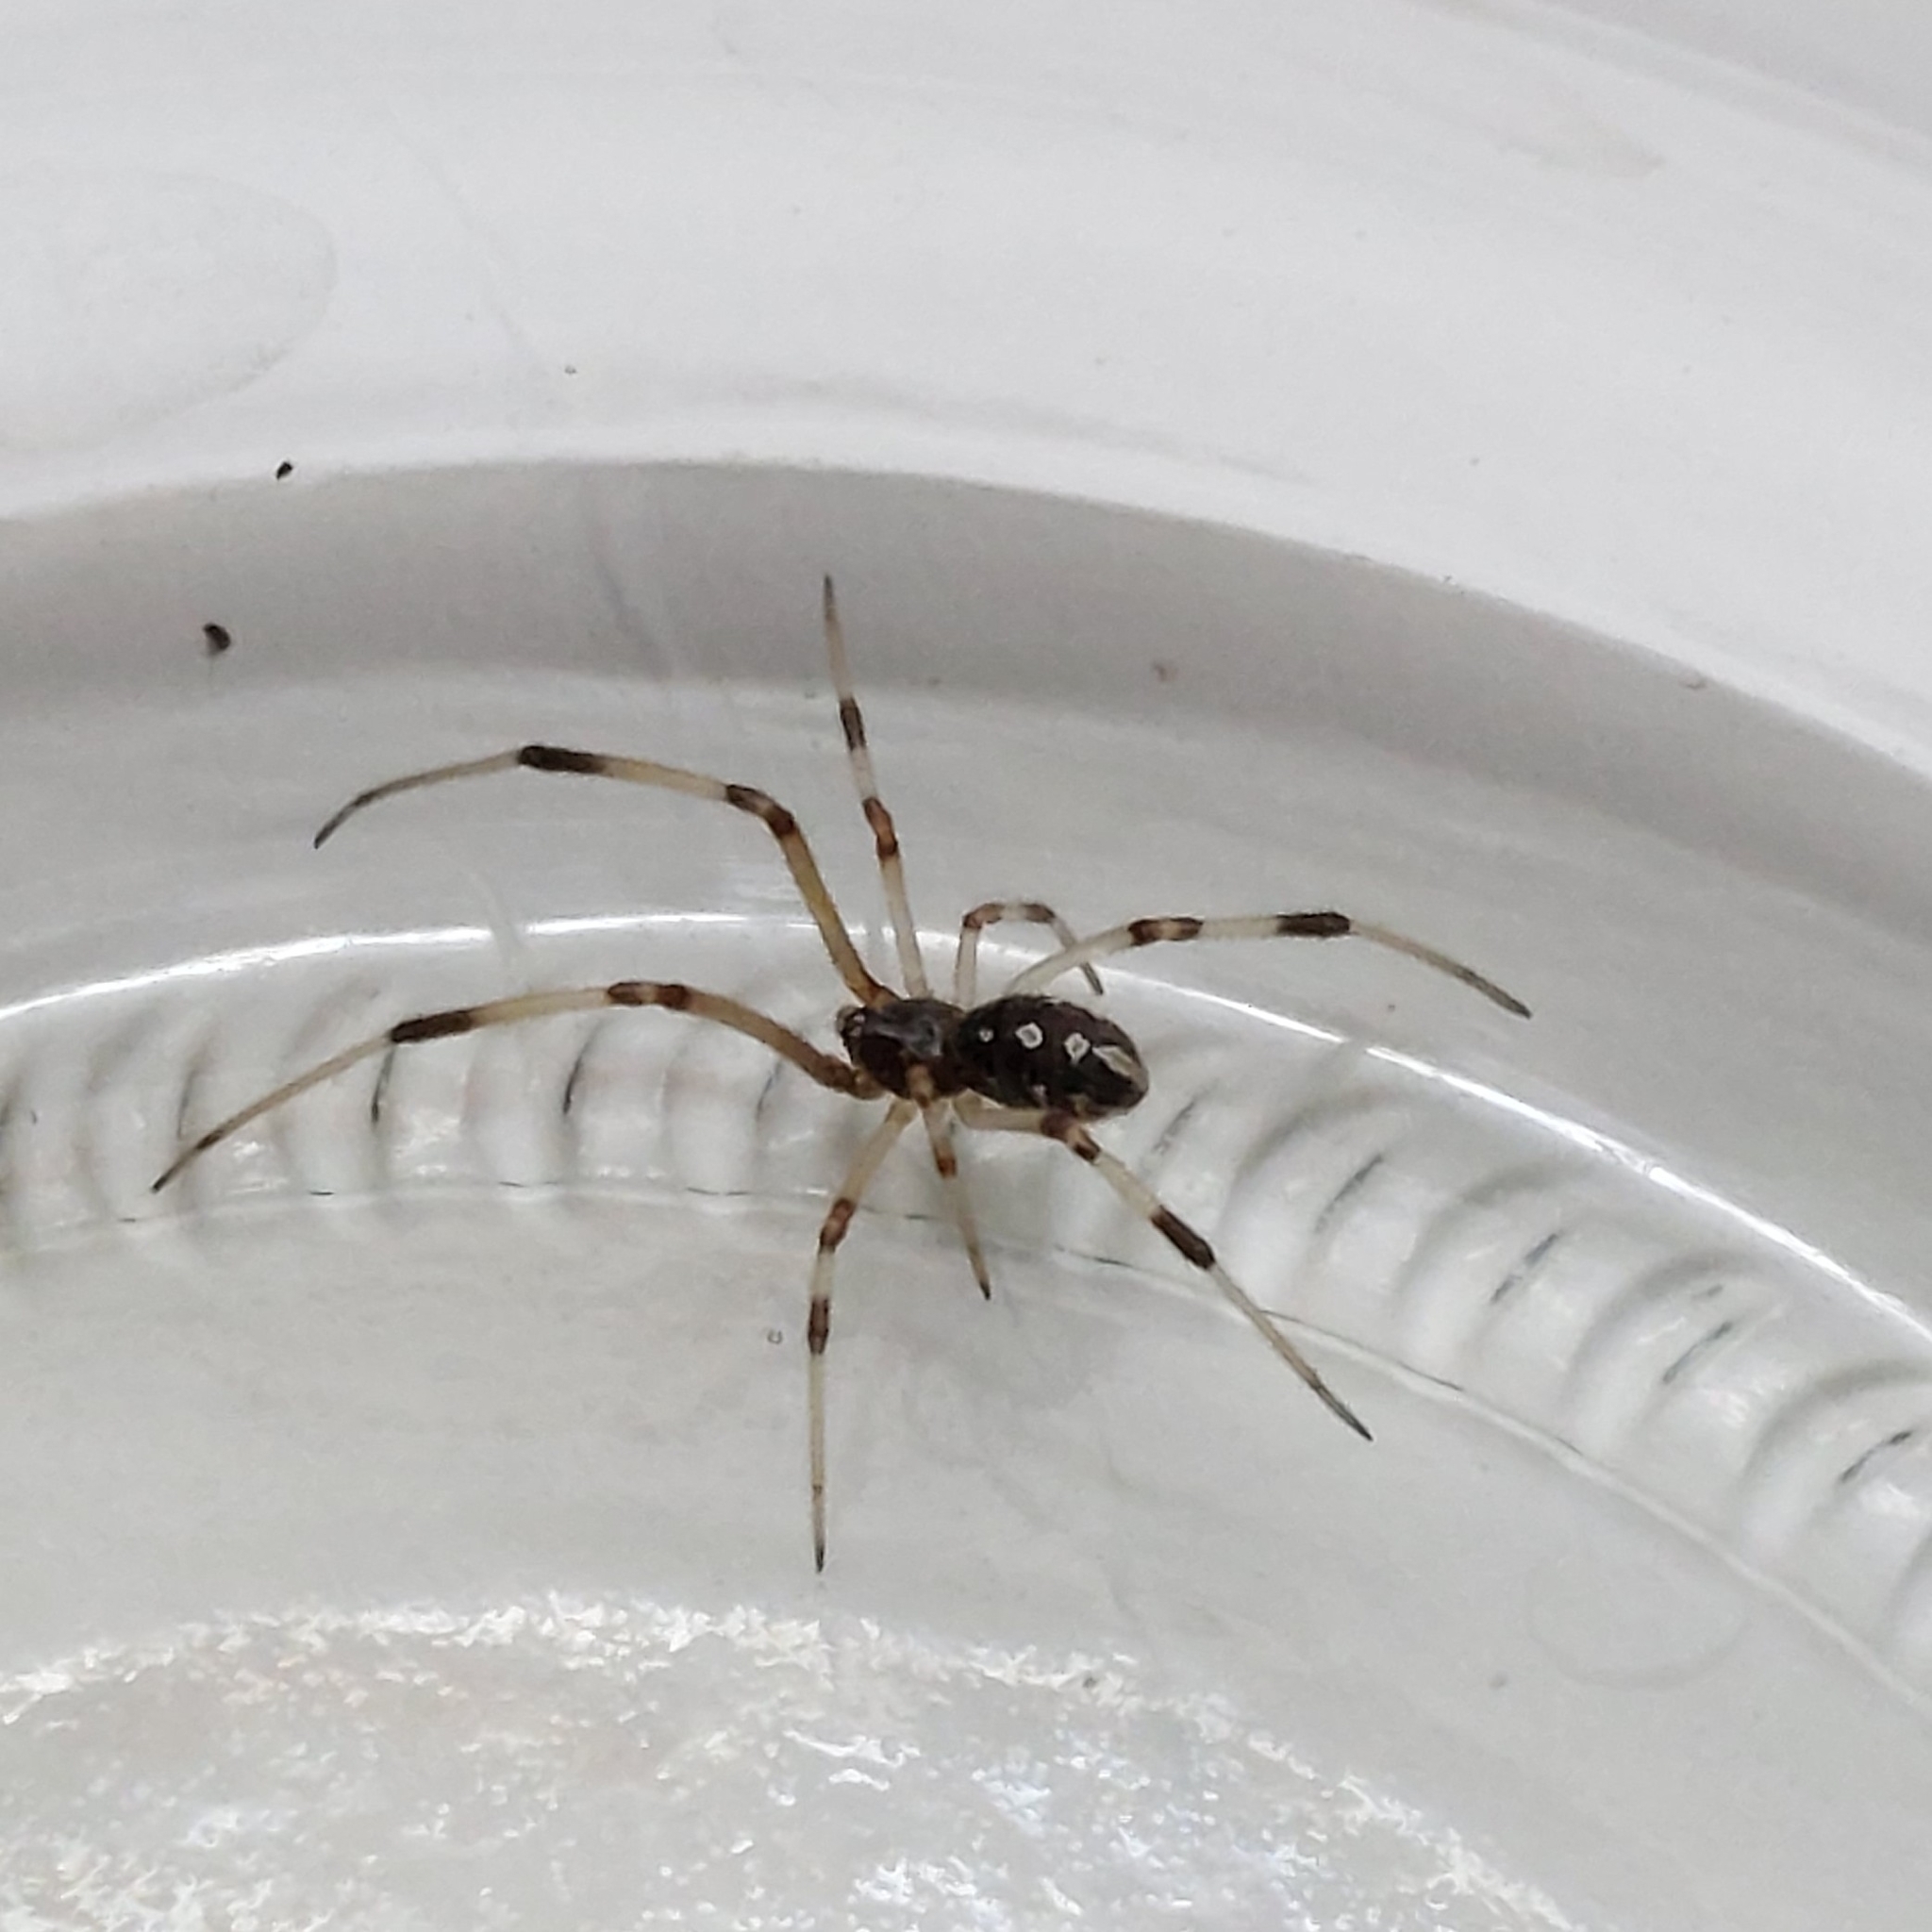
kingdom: Animalia
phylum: Arthropoda
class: Arachnida
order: Araneae
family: Theridiidae
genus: Latrodectus
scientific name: Latrodectus geometricus
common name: Brown widow spider
